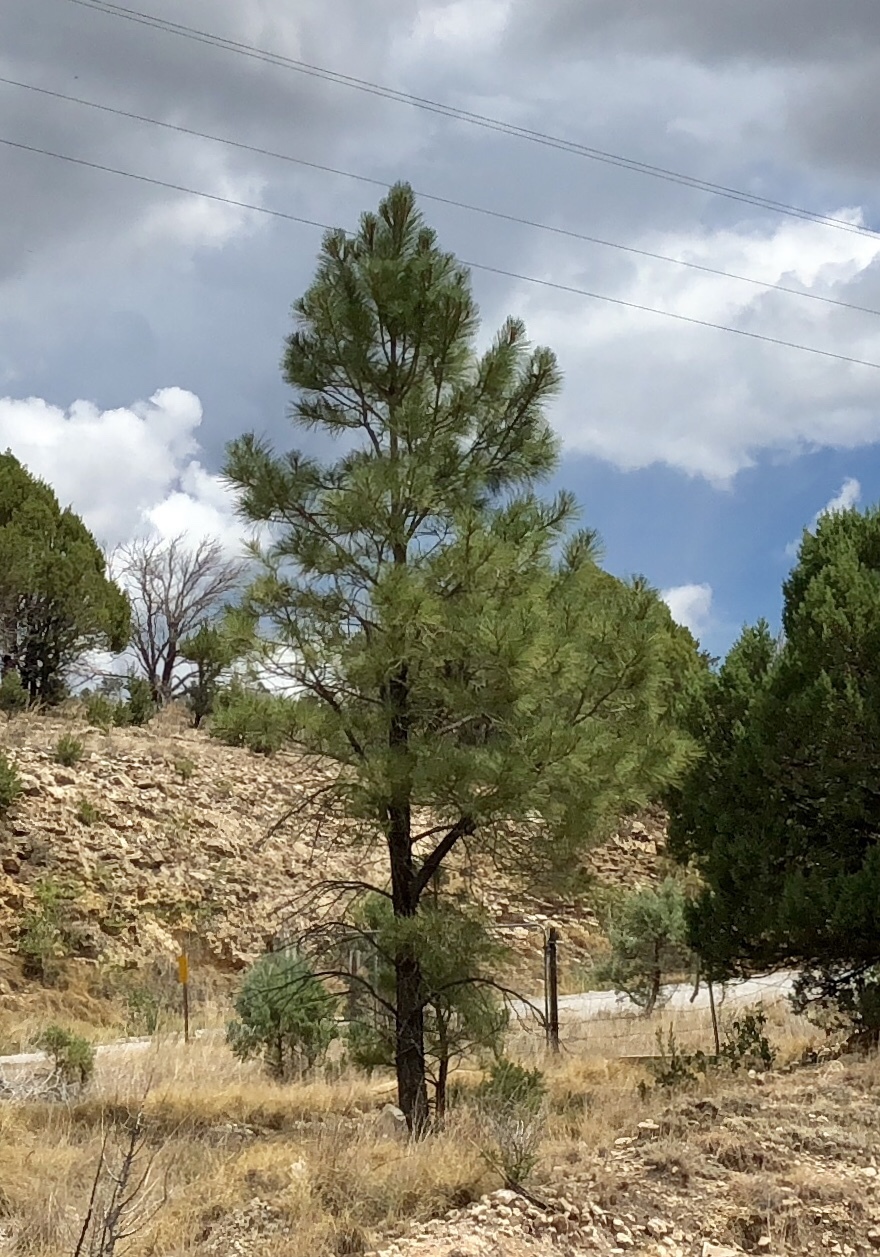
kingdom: Plantae
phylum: Tracheophyta
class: Pinopsida
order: Pinales
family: Pinaceae
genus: Pinus
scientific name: Pinus ponderosa
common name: Western yellow-pine
